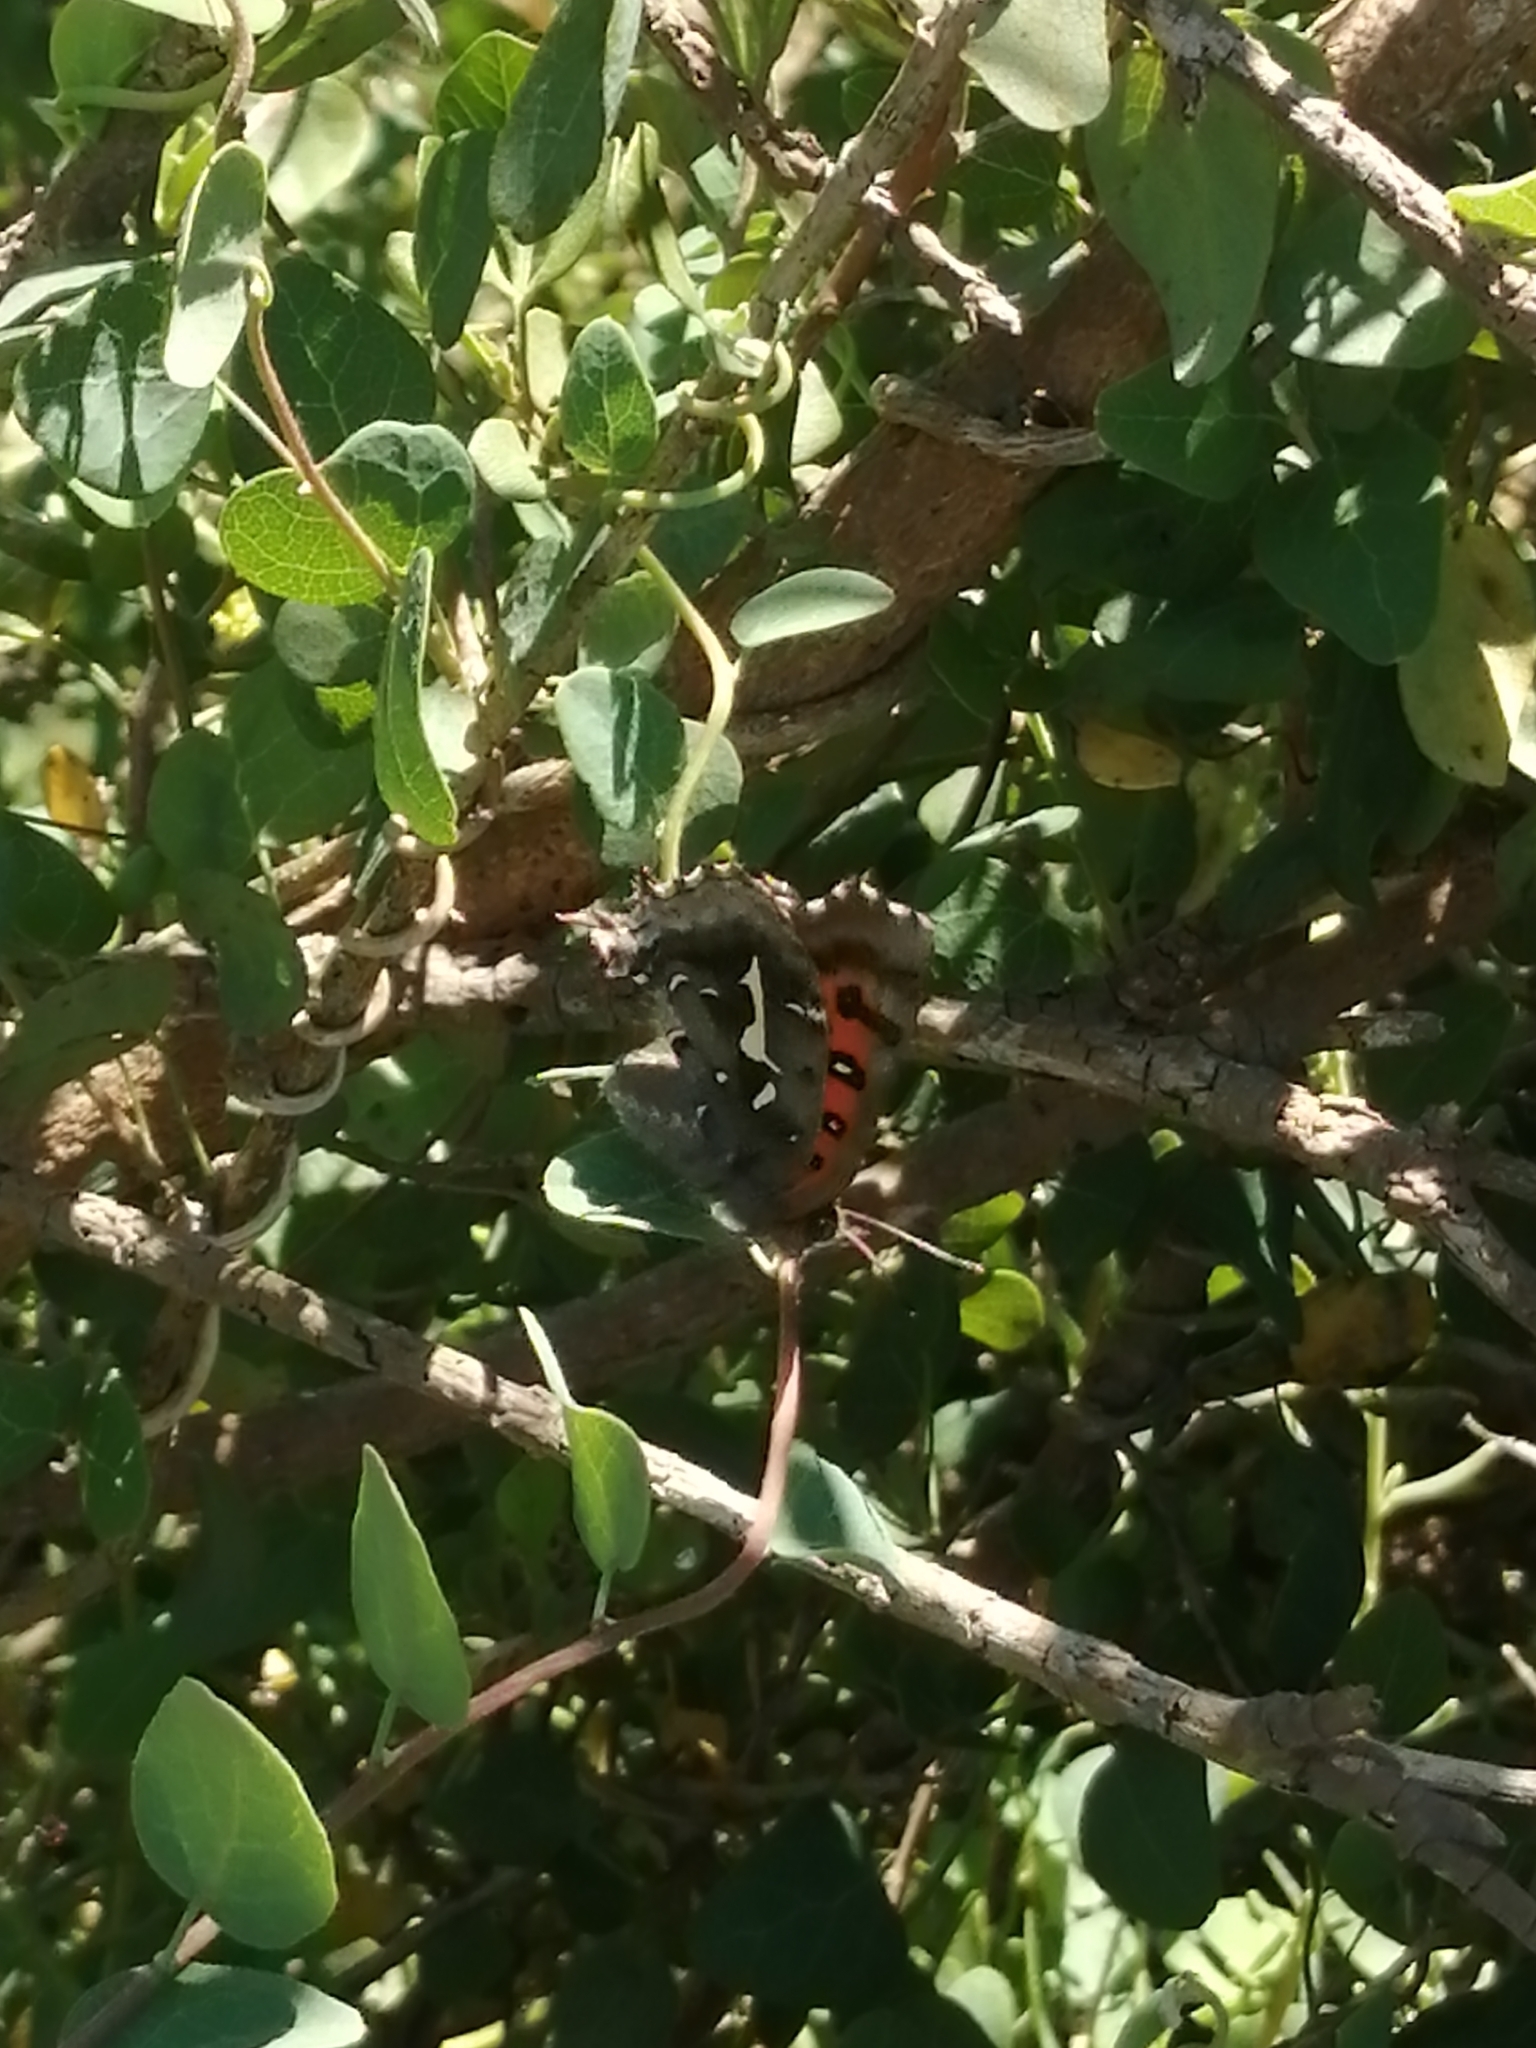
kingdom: Animalia
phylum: Arthropoda
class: Insecta
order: Lepidoptera
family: Lycaenidae
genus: Phasis
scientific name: Phasis thero
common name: Silver arrowhead
